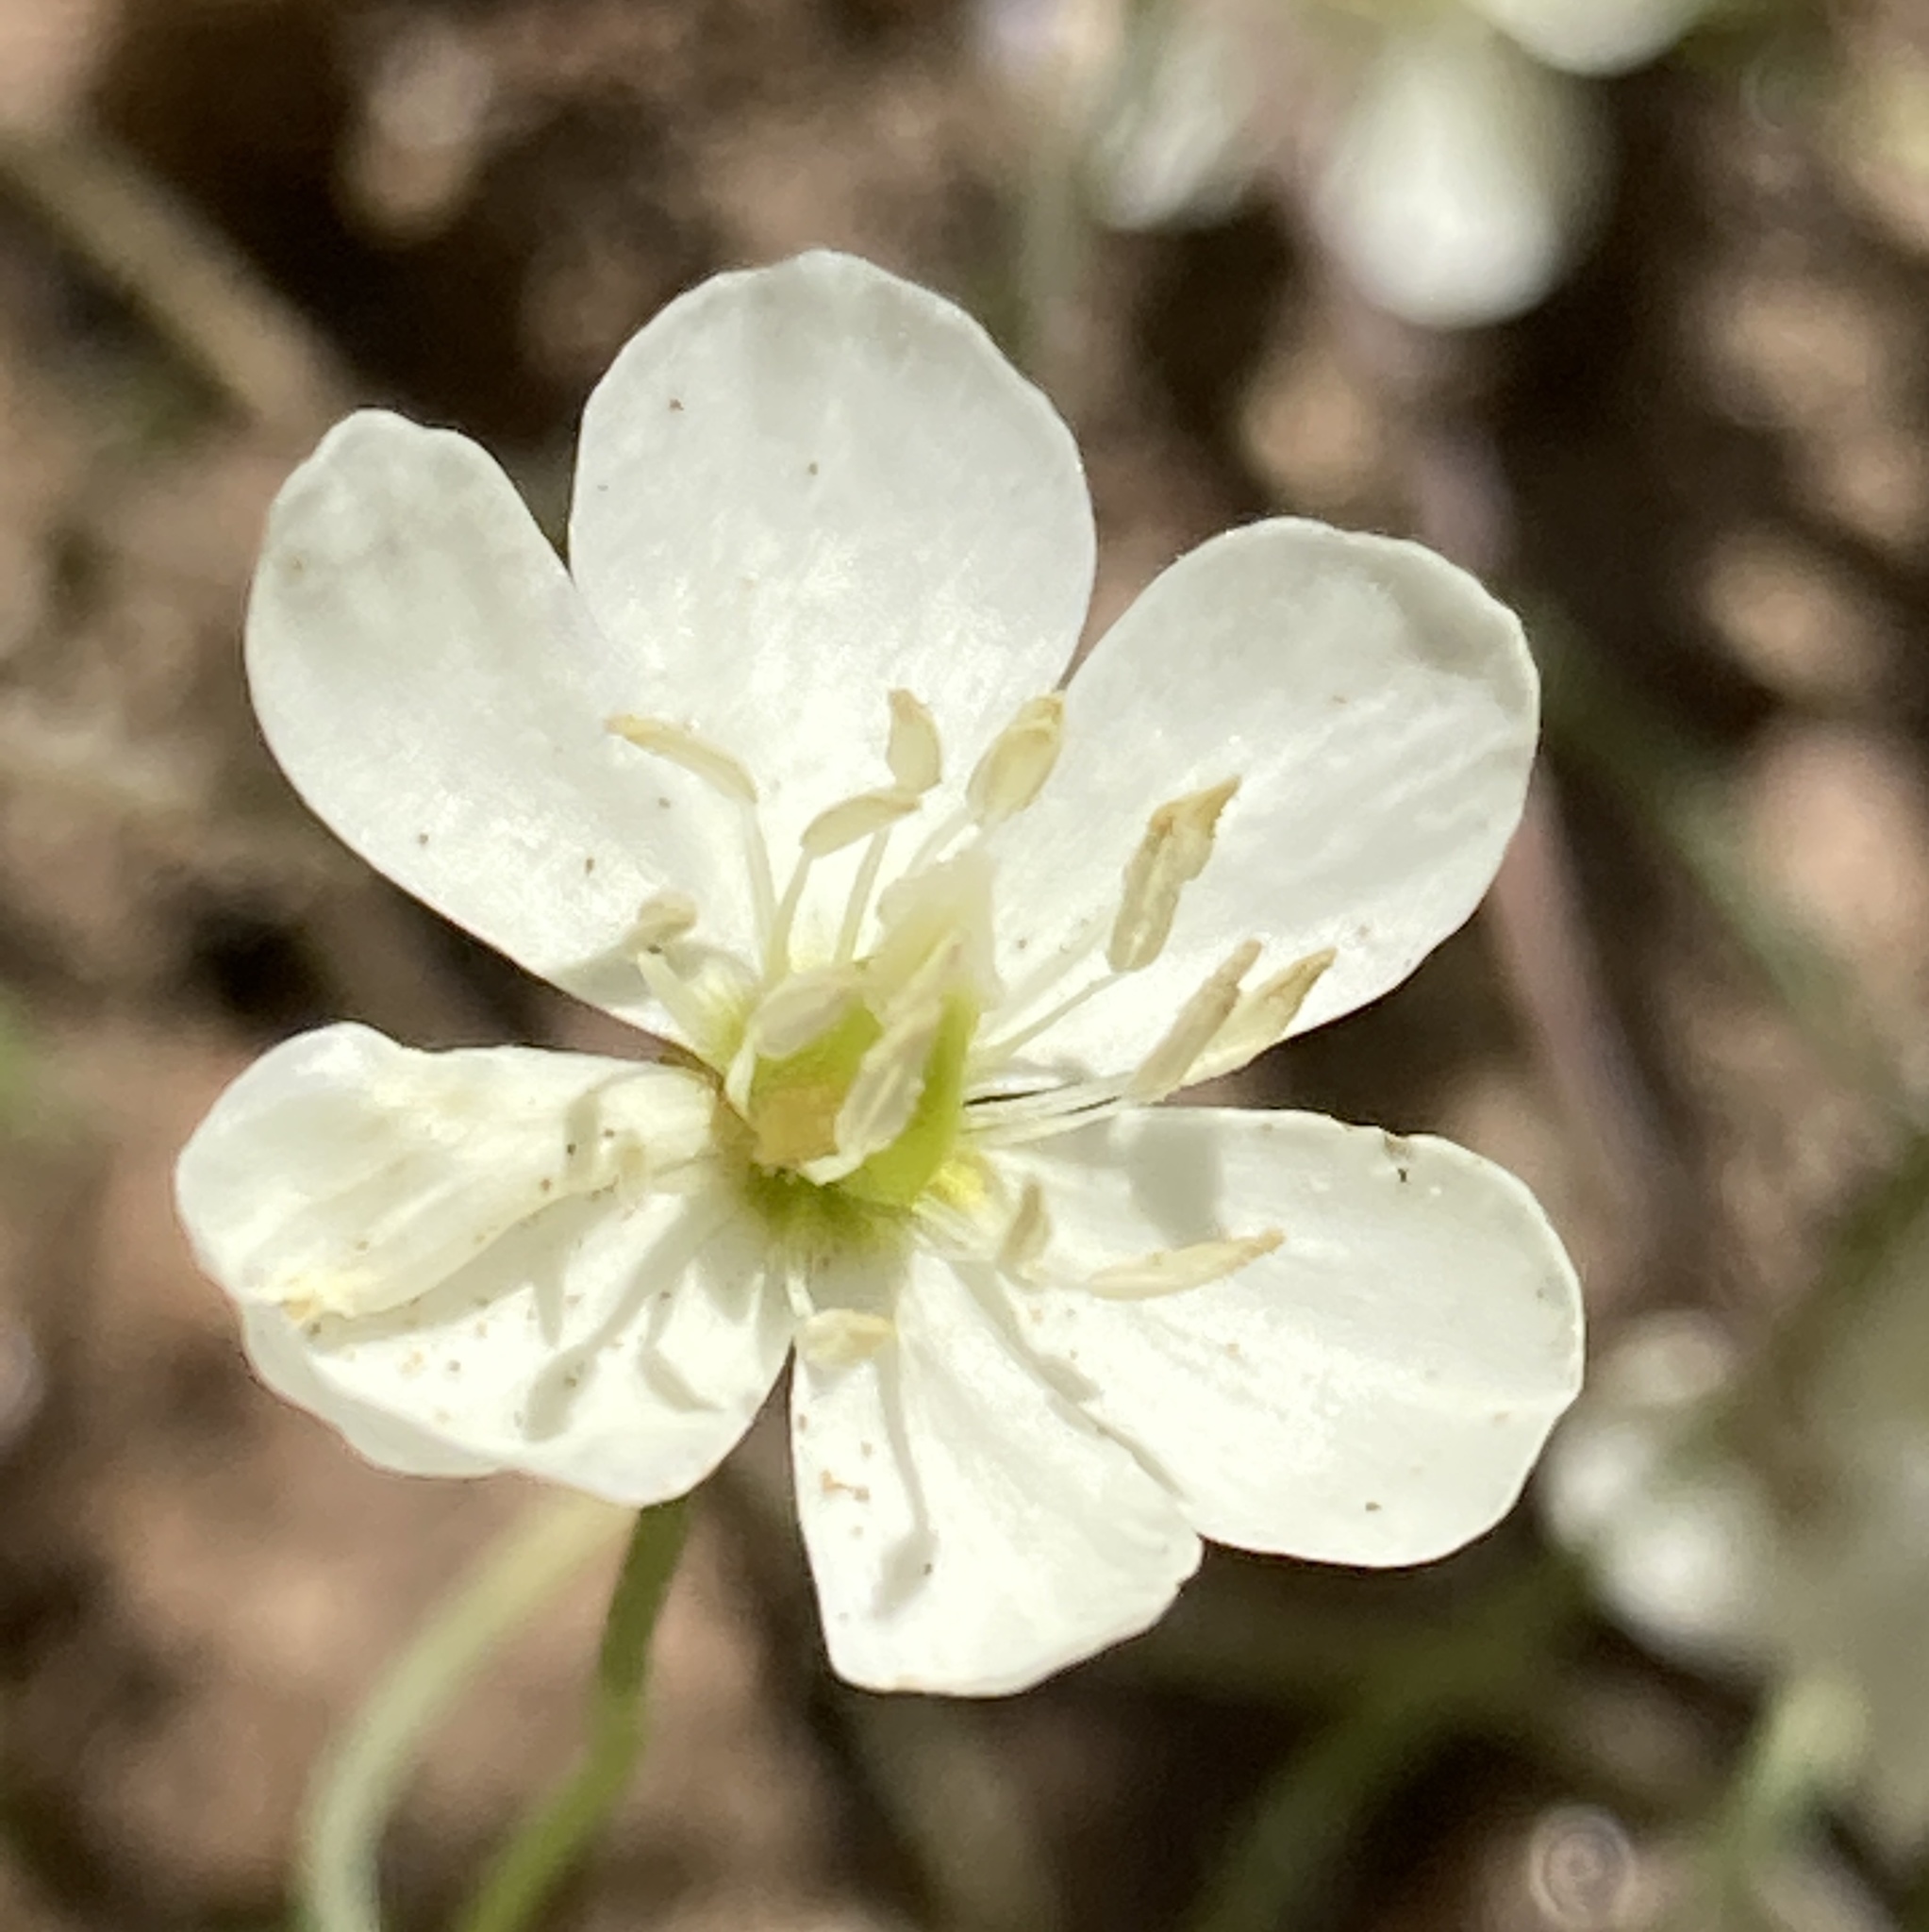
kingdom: Plantae
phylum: Tracheophyta
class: Magnoliopsida
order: Ranunculales
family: Papaveraceae
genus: Platystigma
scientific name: Platystigma lineare
